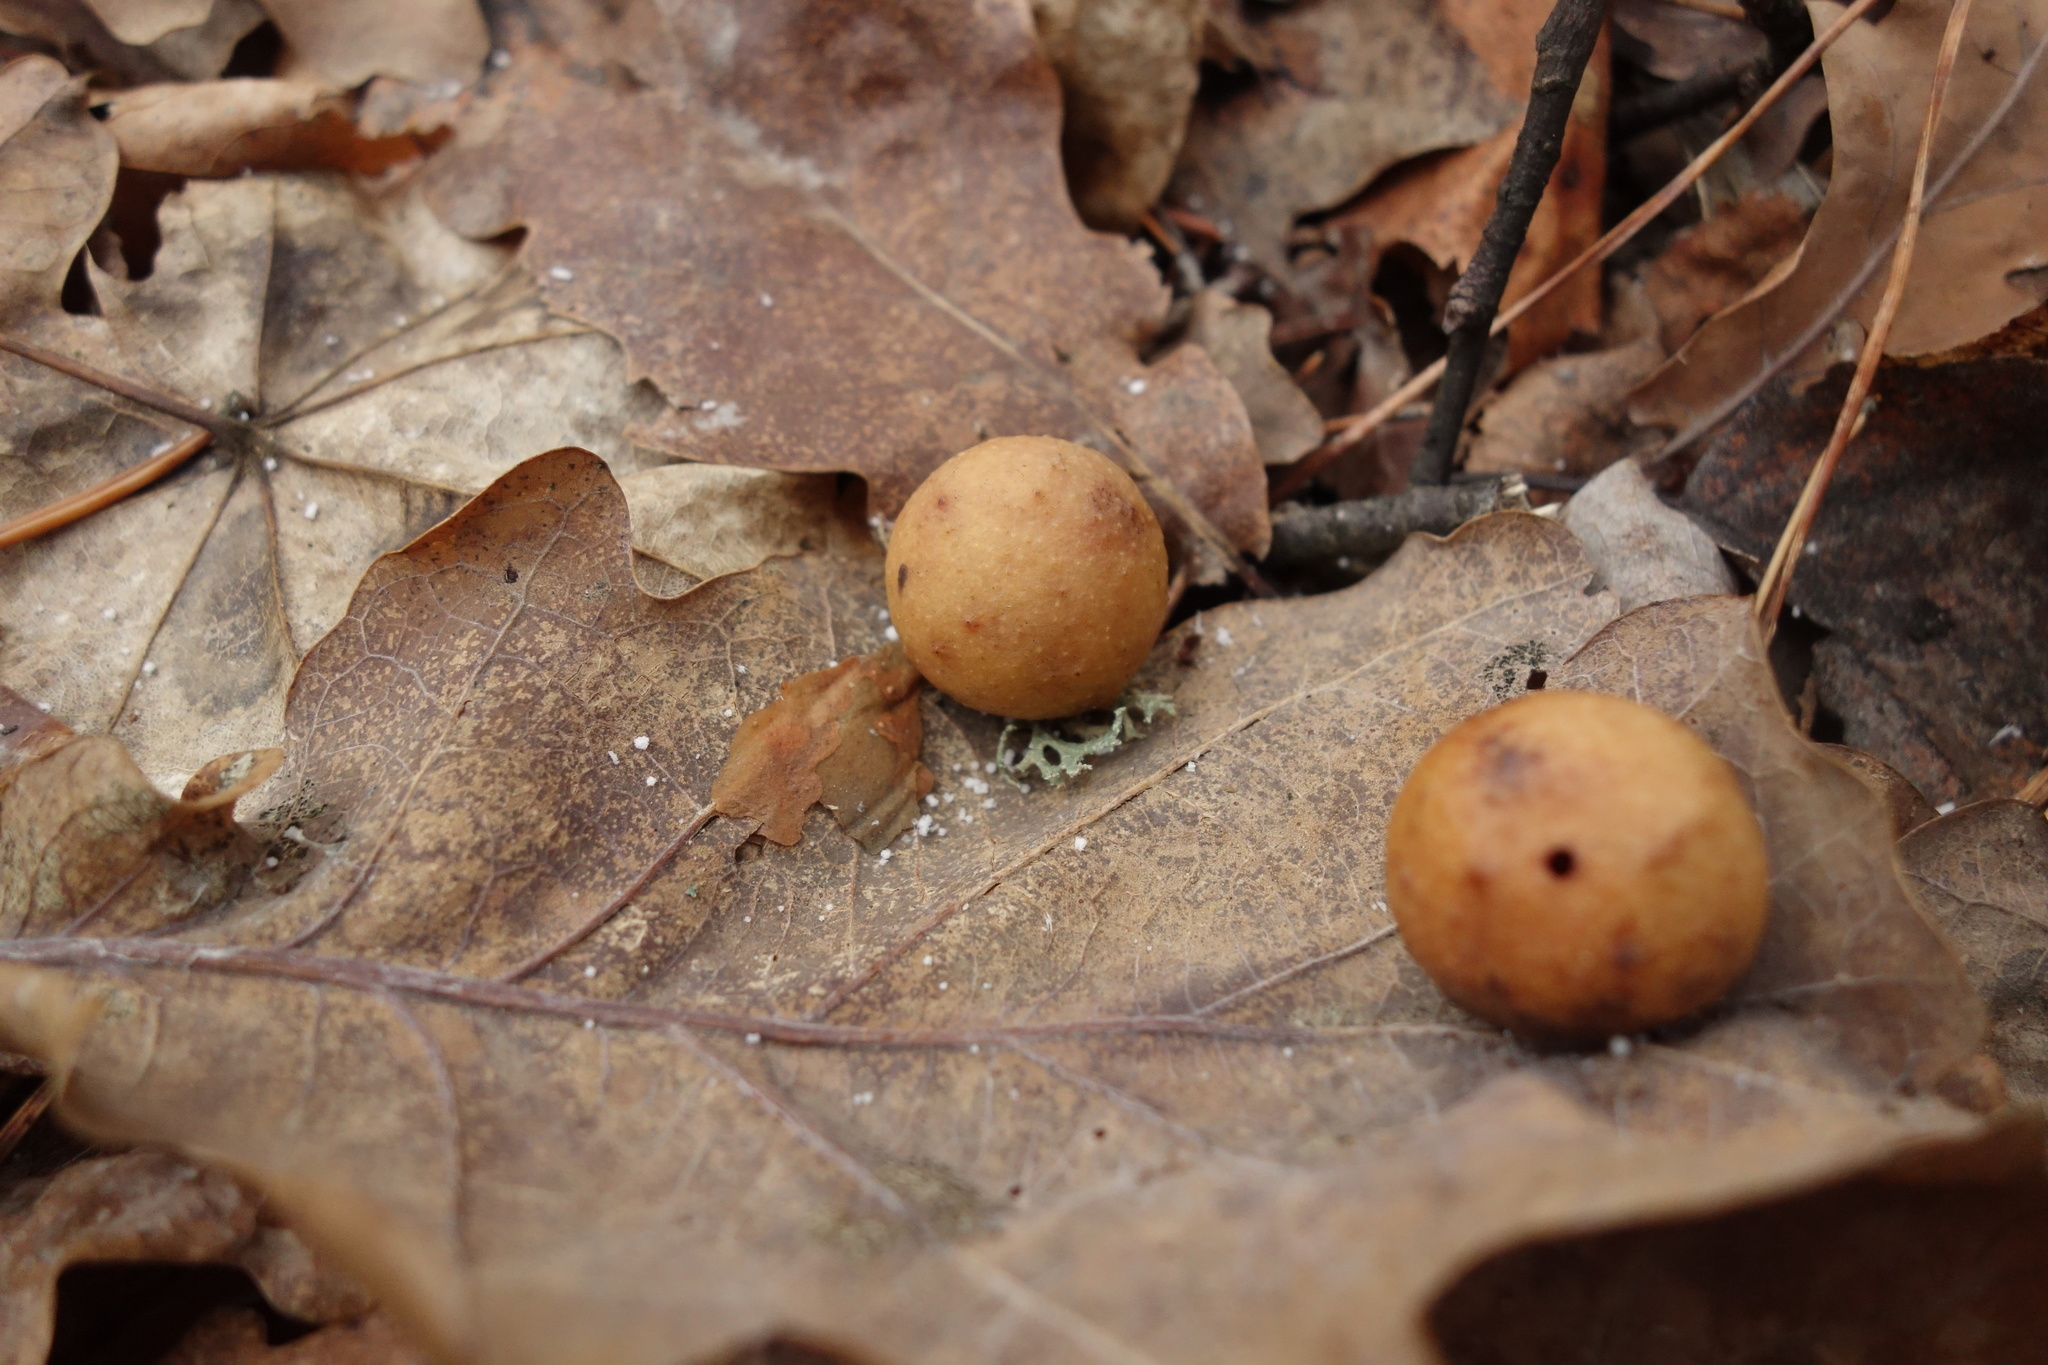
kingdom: Animalia
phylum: Arthropoda
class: Insecta
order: Hymenoptera
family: Cynipidae
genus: Cynips
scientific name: Cynips quercusfolii
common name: Cherry gall
